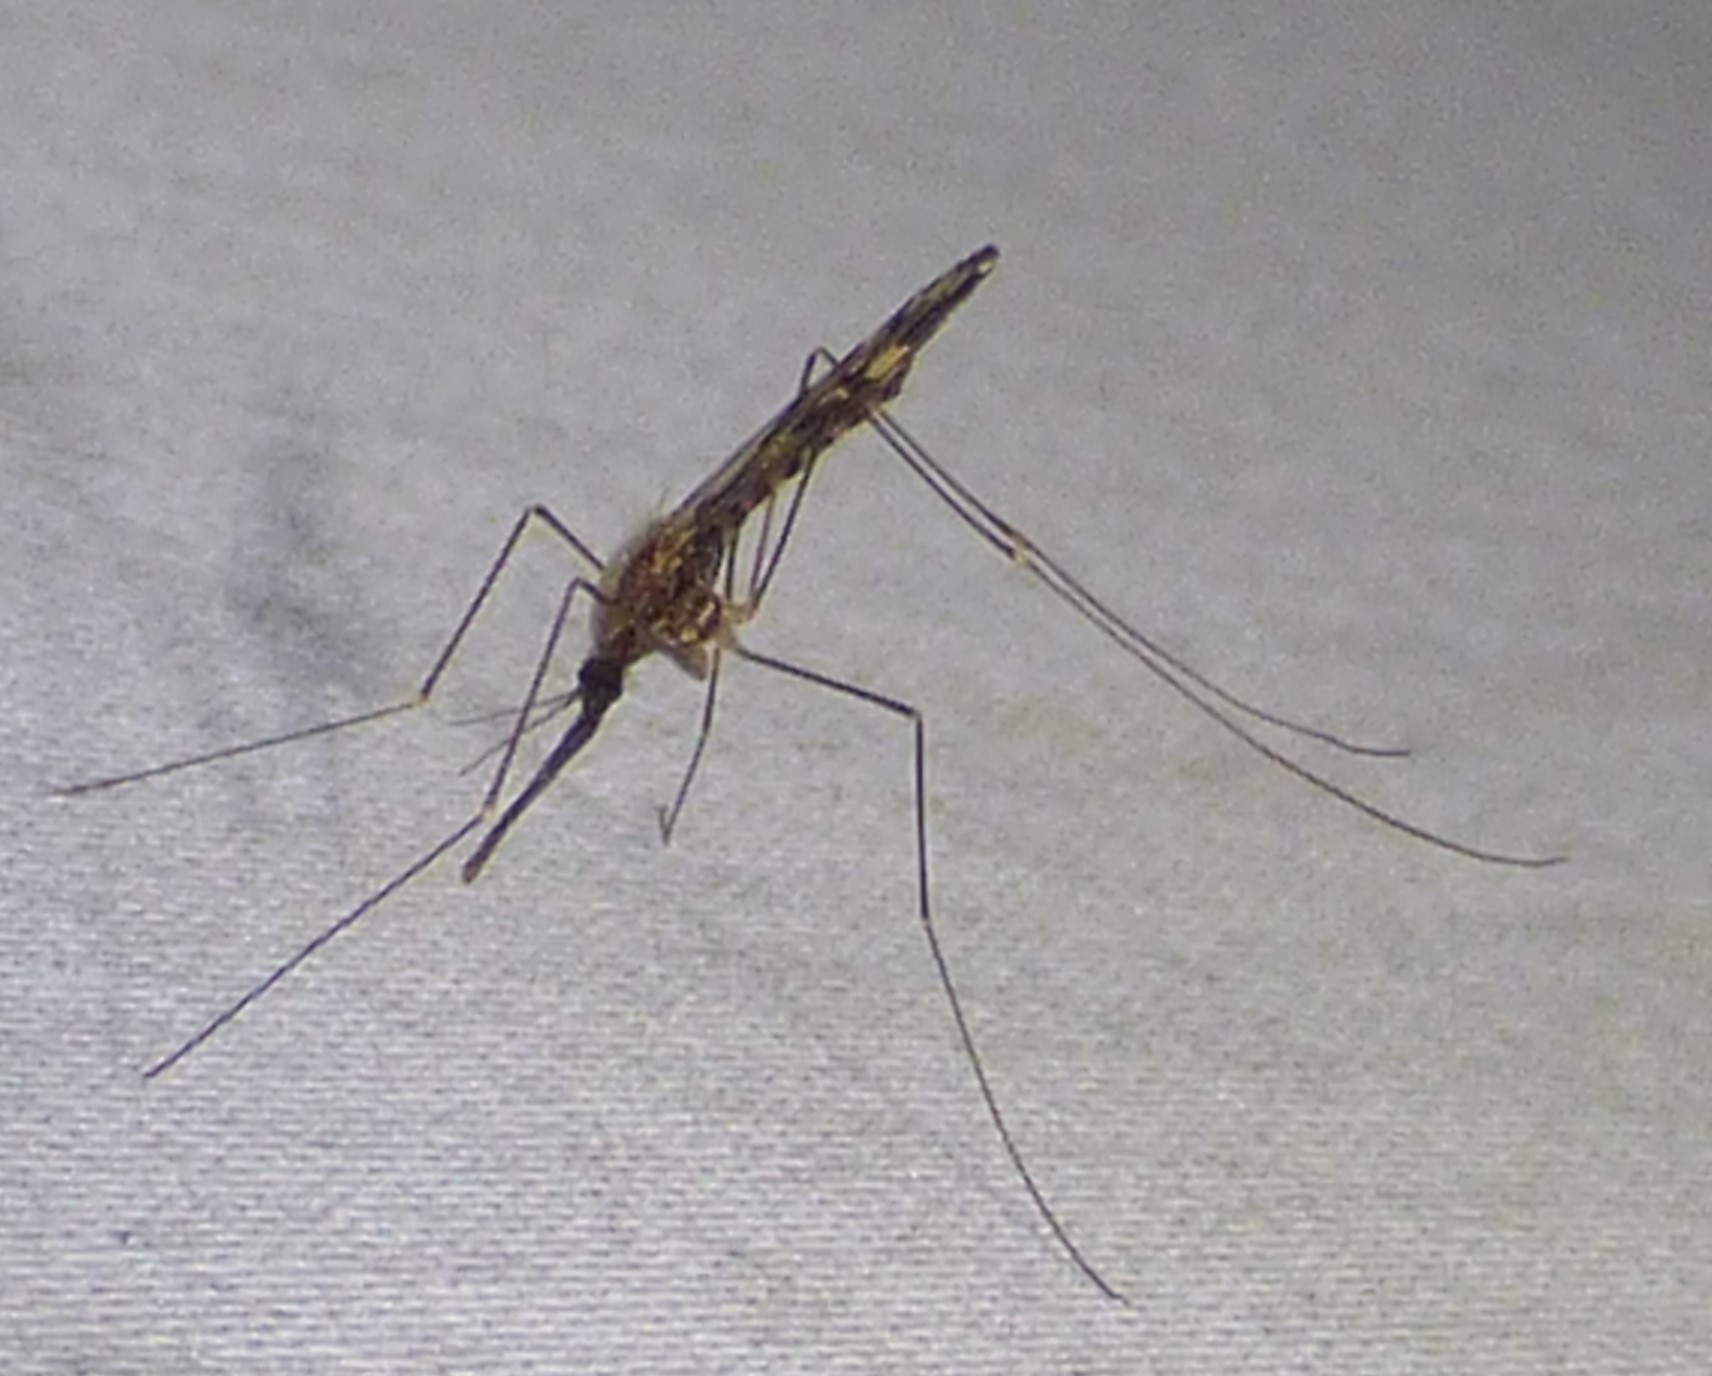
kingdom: Animalia
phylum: Arthropoda
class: Insecta
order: Diptera
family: Culicidae
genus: Anopheles
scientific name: Anopheles punctipennis
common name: Woodland malaria mosquito
